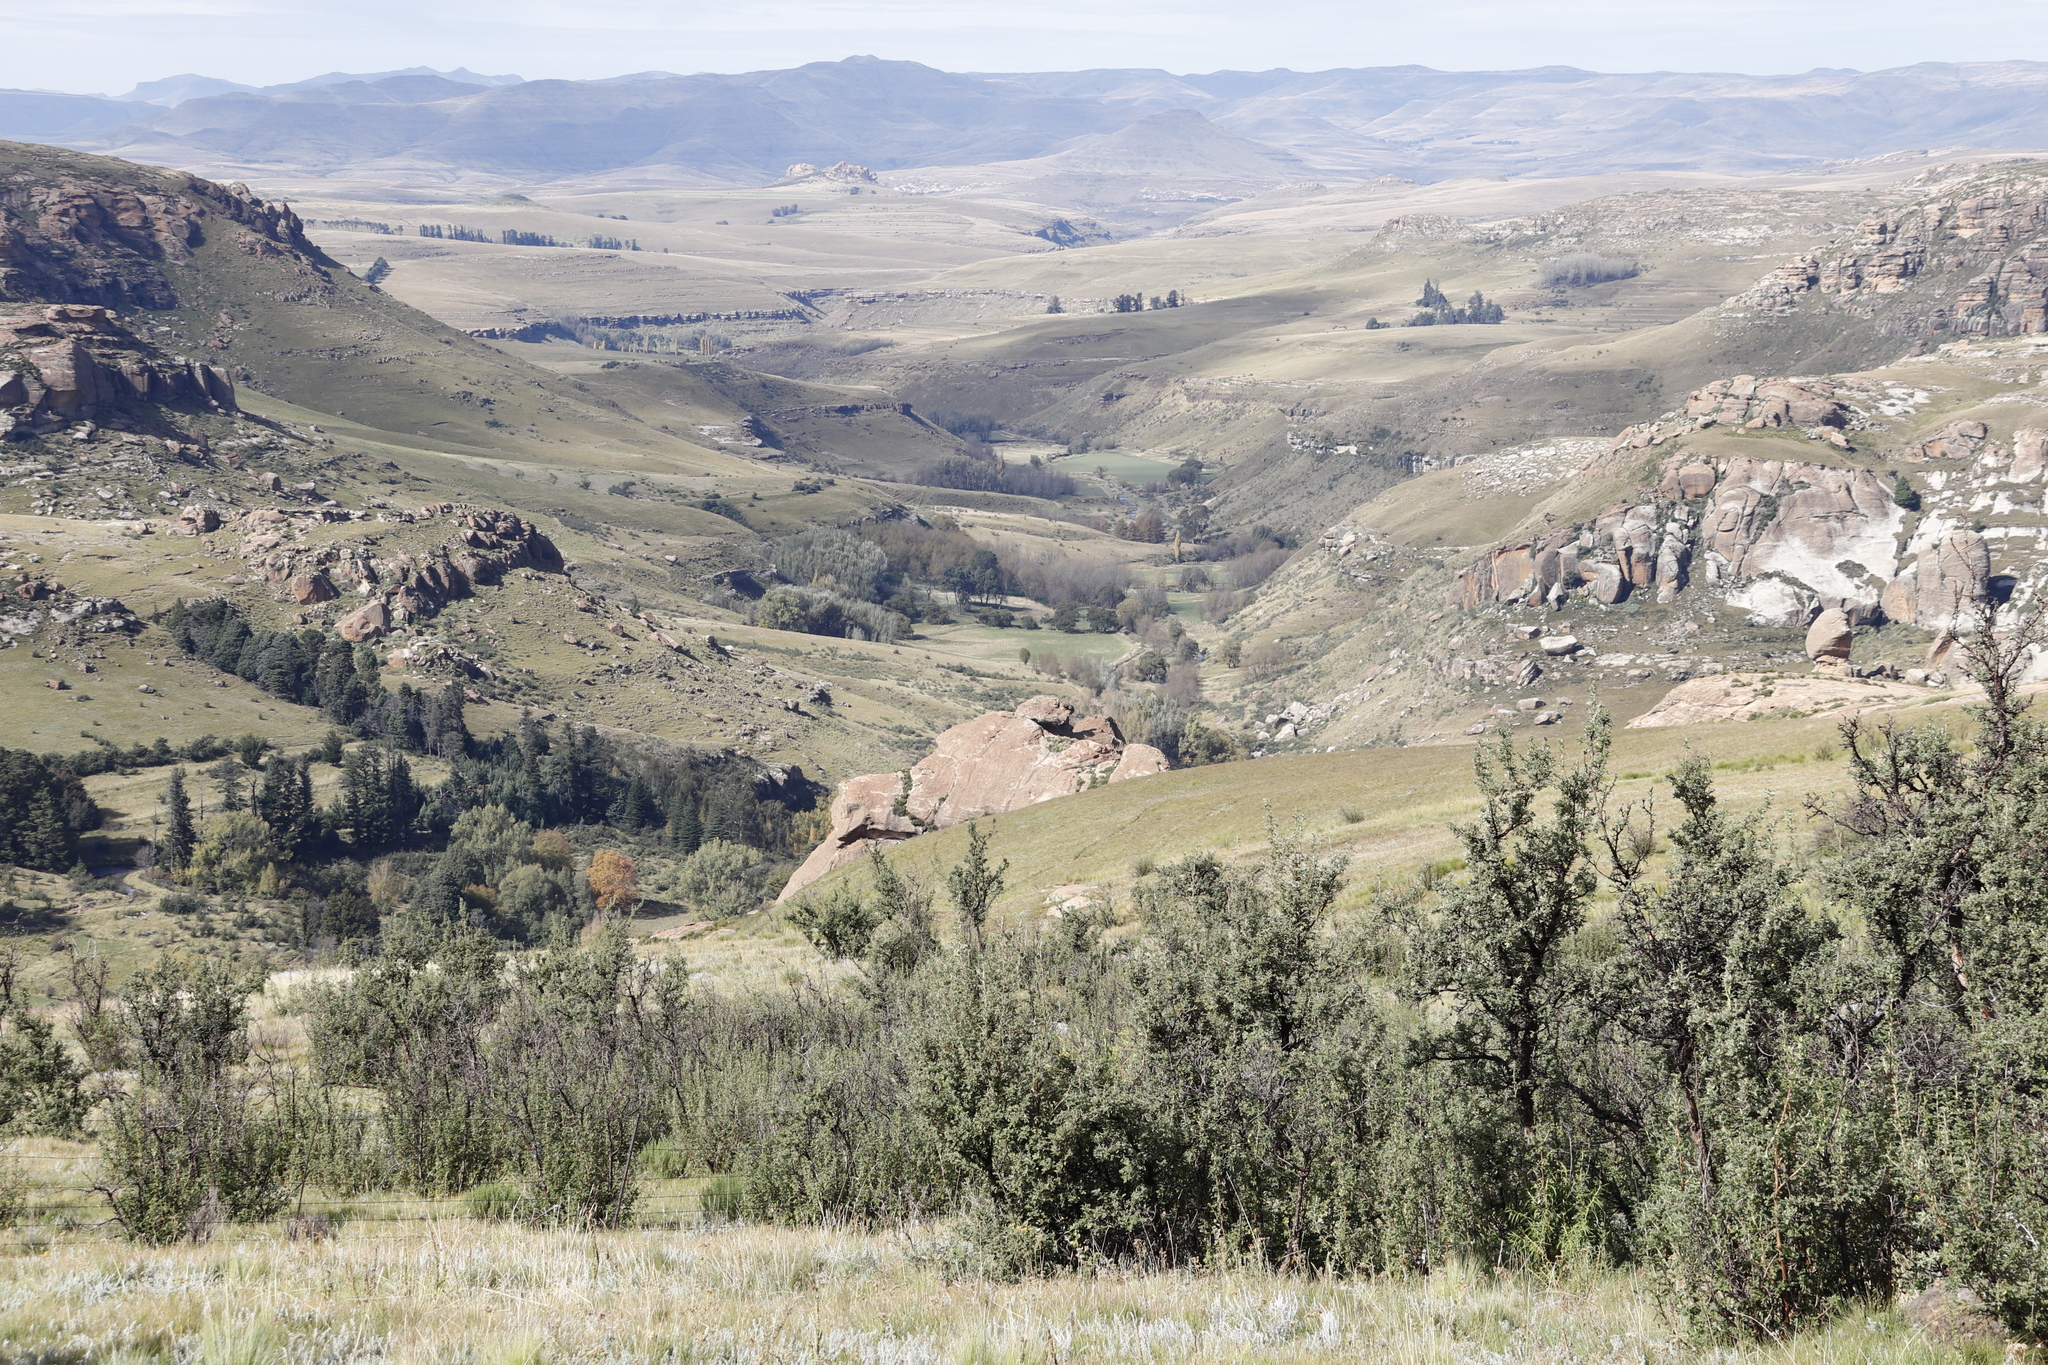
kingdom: Plantae
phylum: Tracheophyta
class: Magnoliopsida
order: Rosales
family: Rosaceae
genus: Leucosidea
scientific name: Leucosidea sericea
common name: Oldwood
